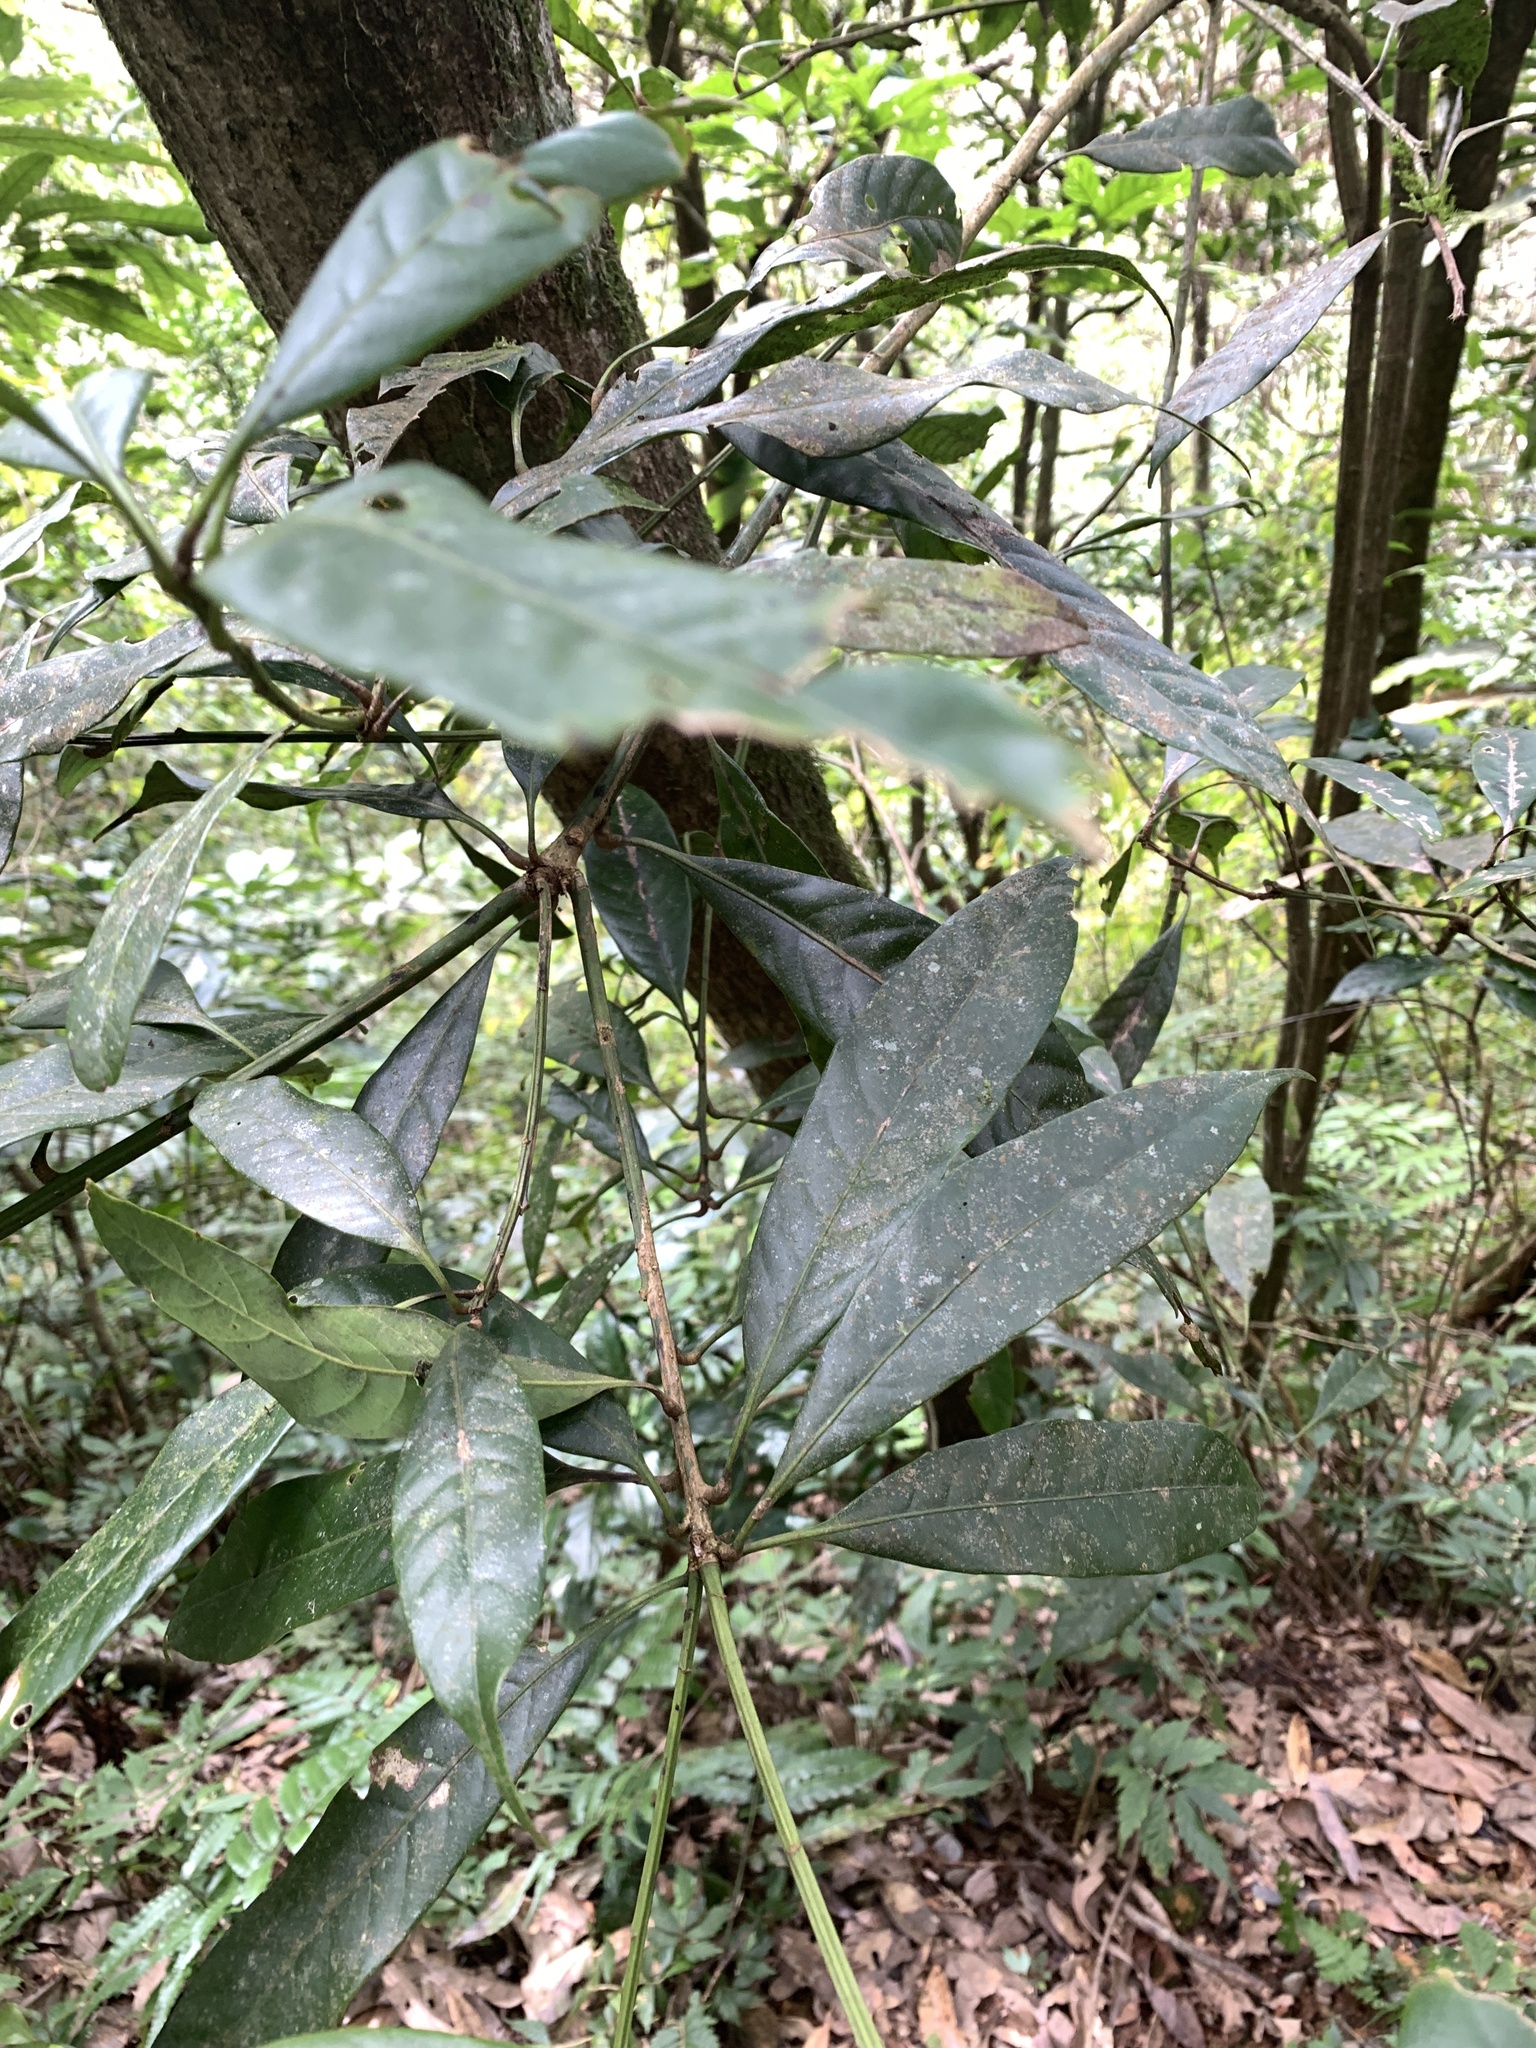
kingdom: Plantae
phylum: Tracheophyta
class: Magnoliopsida
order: Fagales
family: Fagaceae
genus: Lithocarpus
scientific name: Lithocarpus brevicaudatus
